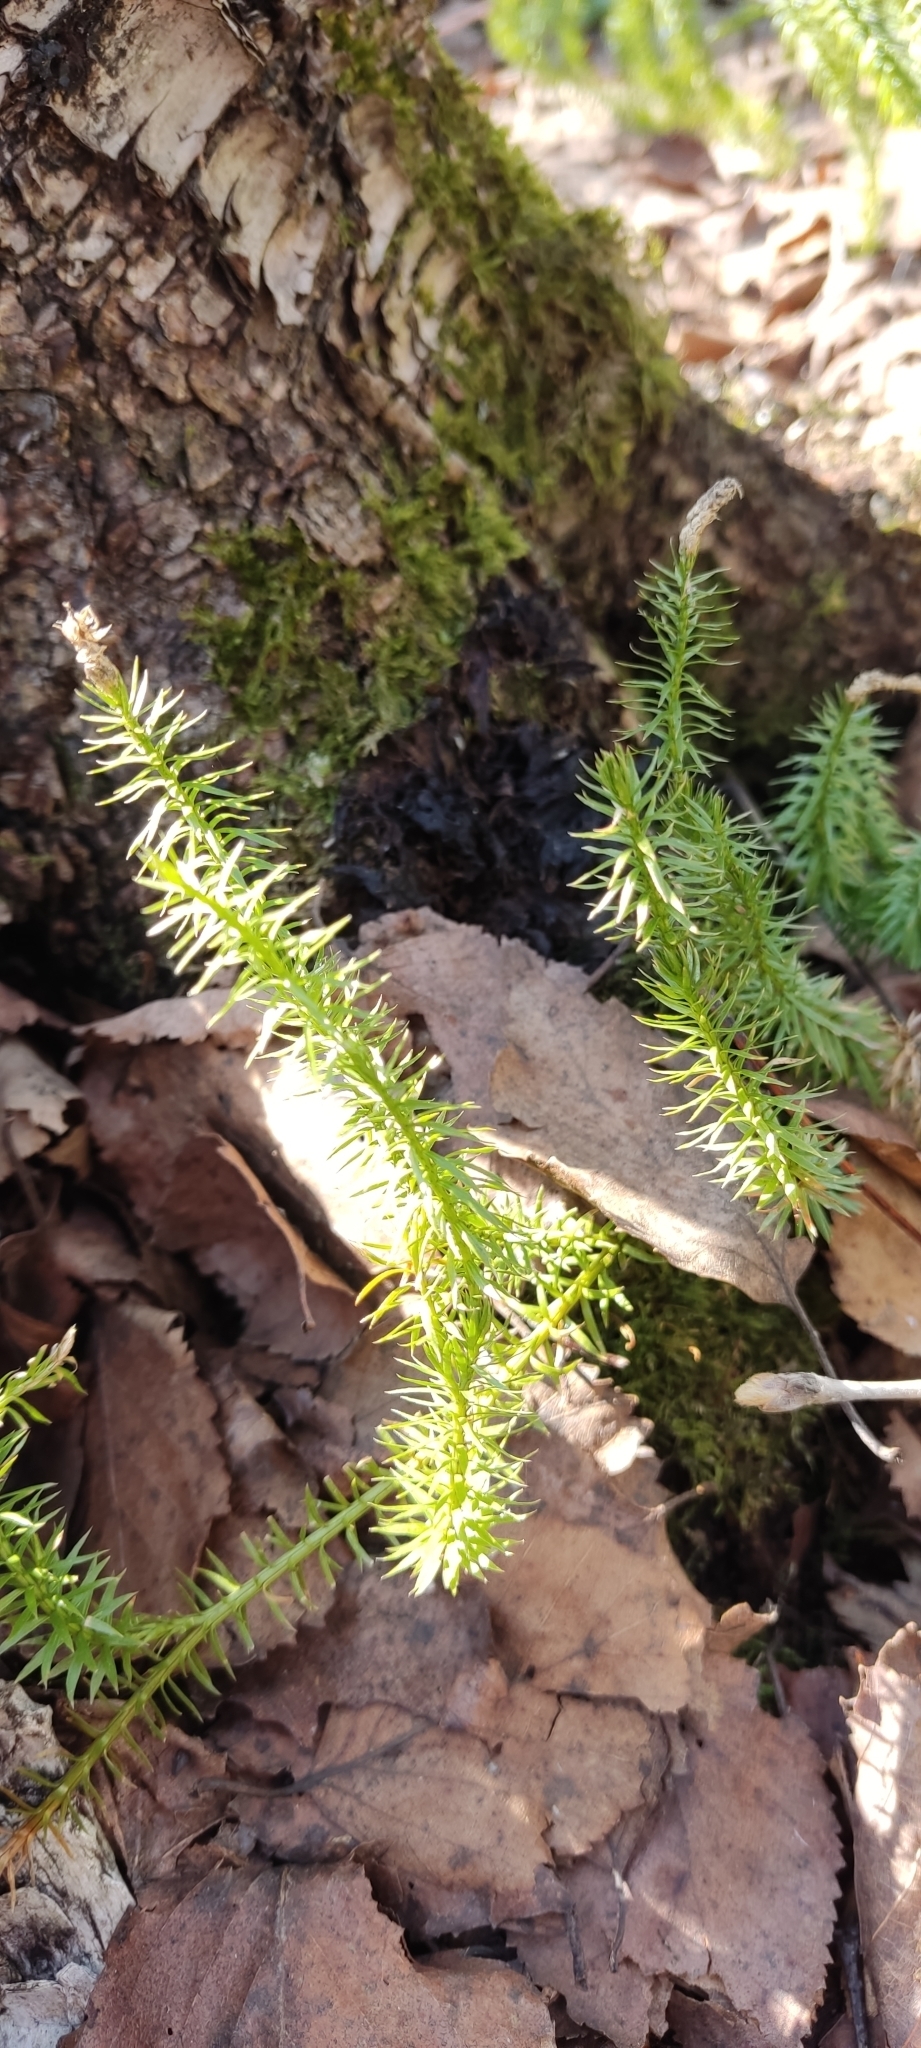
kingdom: Plantae
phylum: Tracheophyta
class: Lycopodiopsida
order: Lycopodiales
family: Lycopodiaceae
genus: Spinulum
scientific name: Spinulum annotinum
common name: Interrupted club-moss
